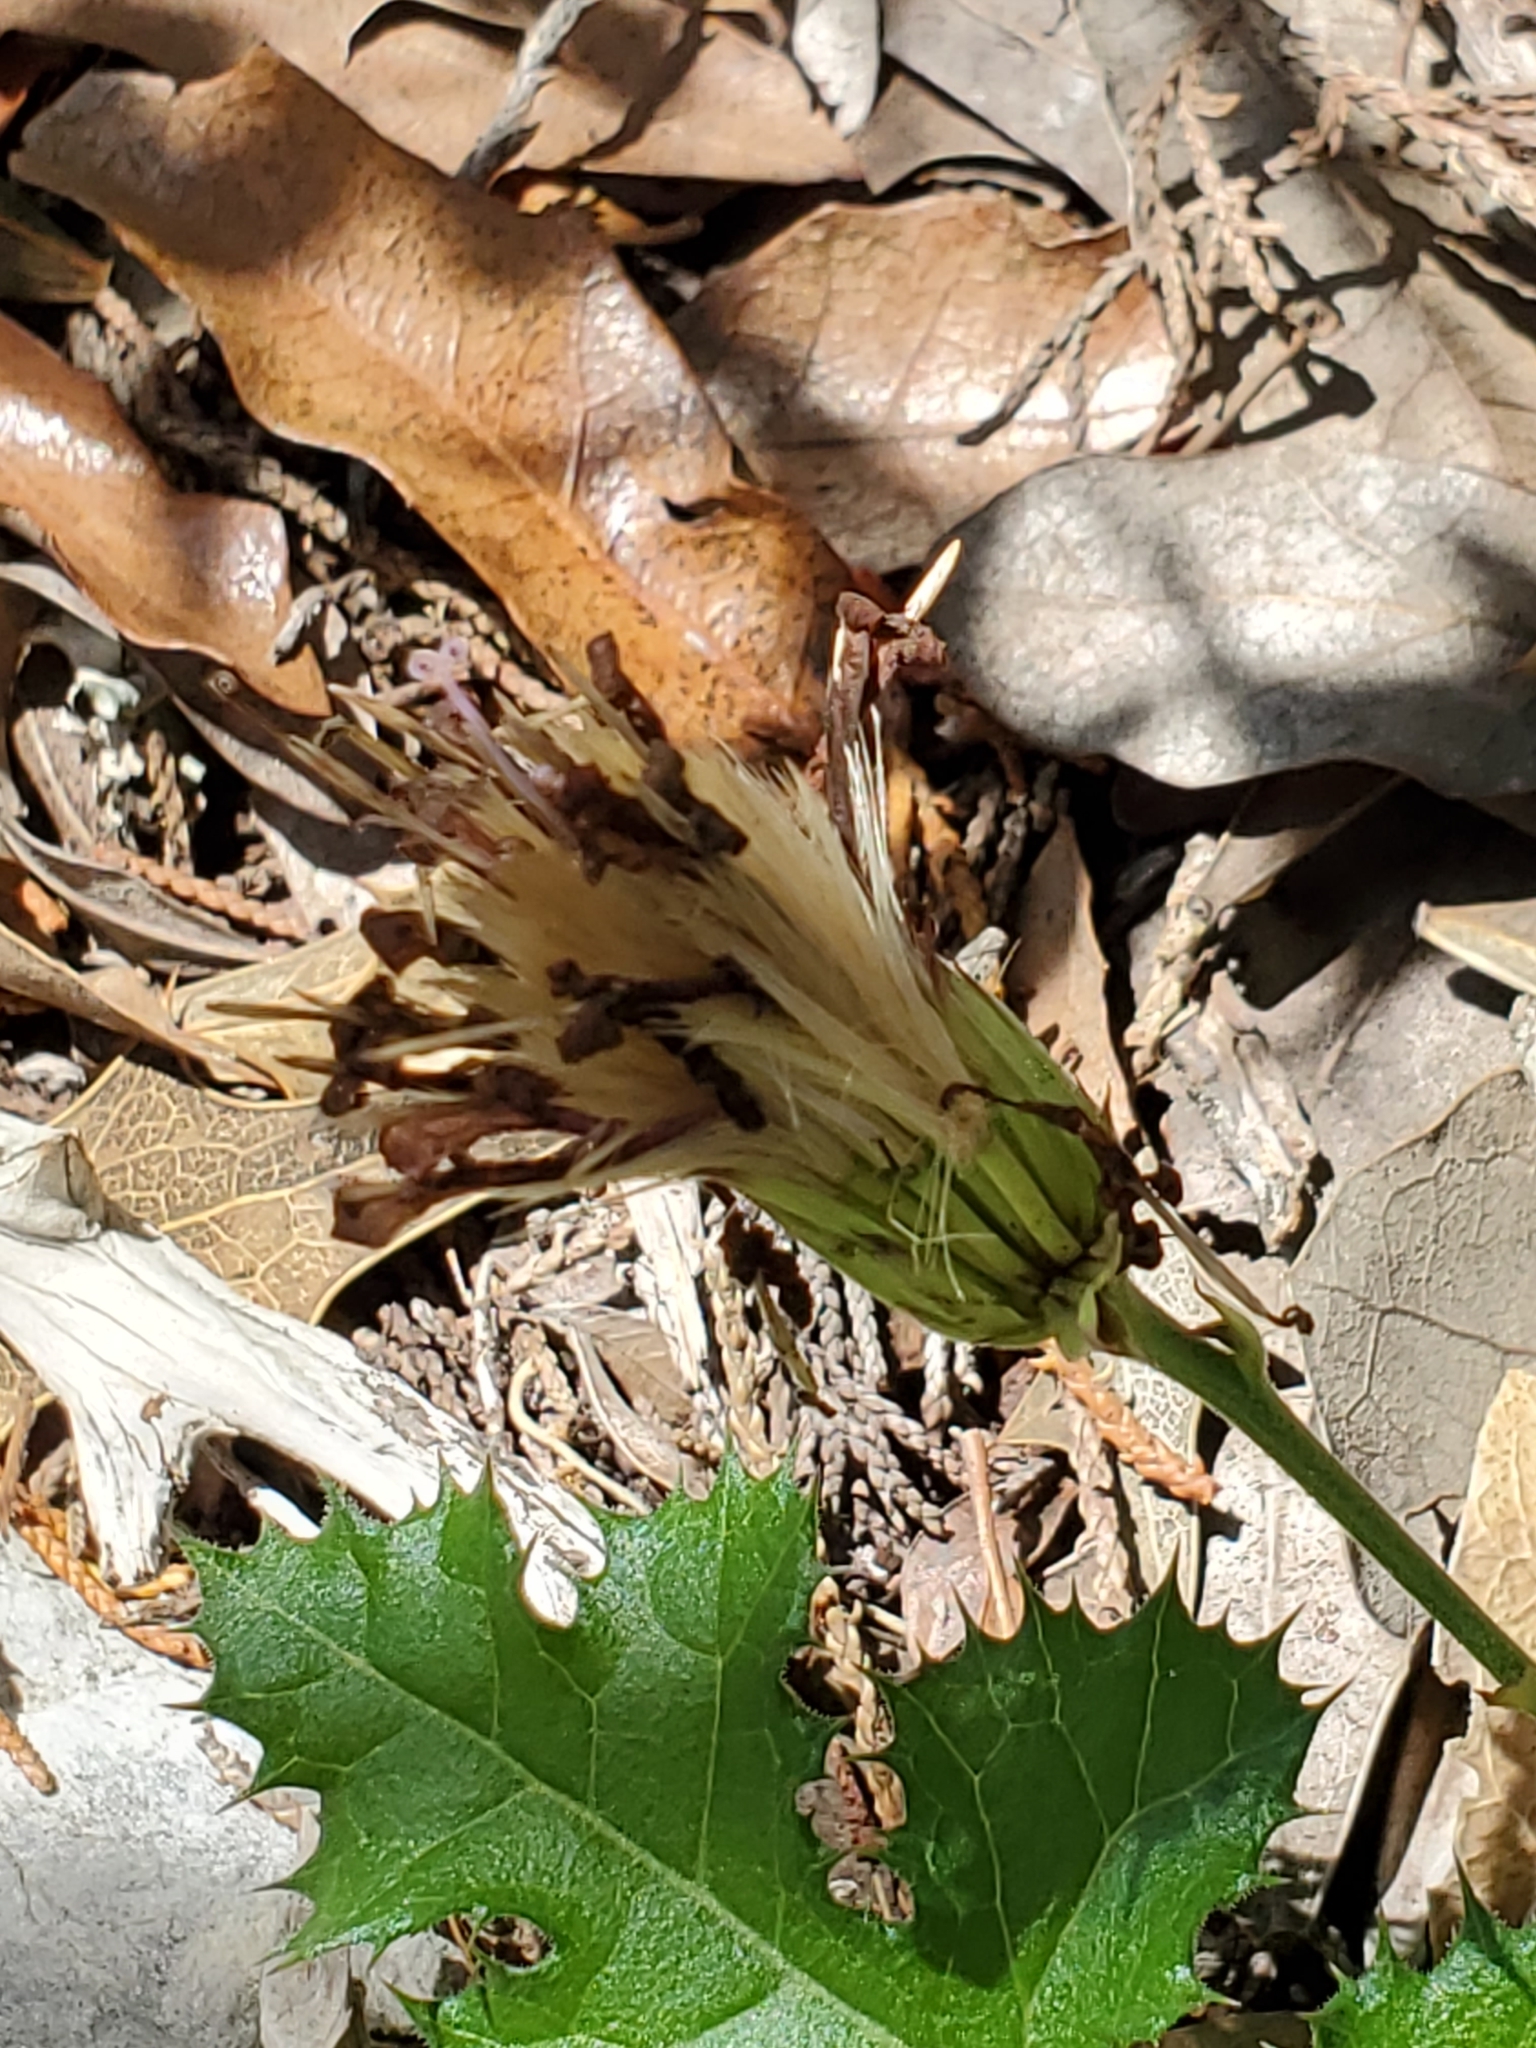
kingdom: Plantae
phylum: Tracheophyta
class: Magnoliopsida
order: Asterales
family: Asteraceae
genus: Acourtia
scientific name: Acourtia runcinata
